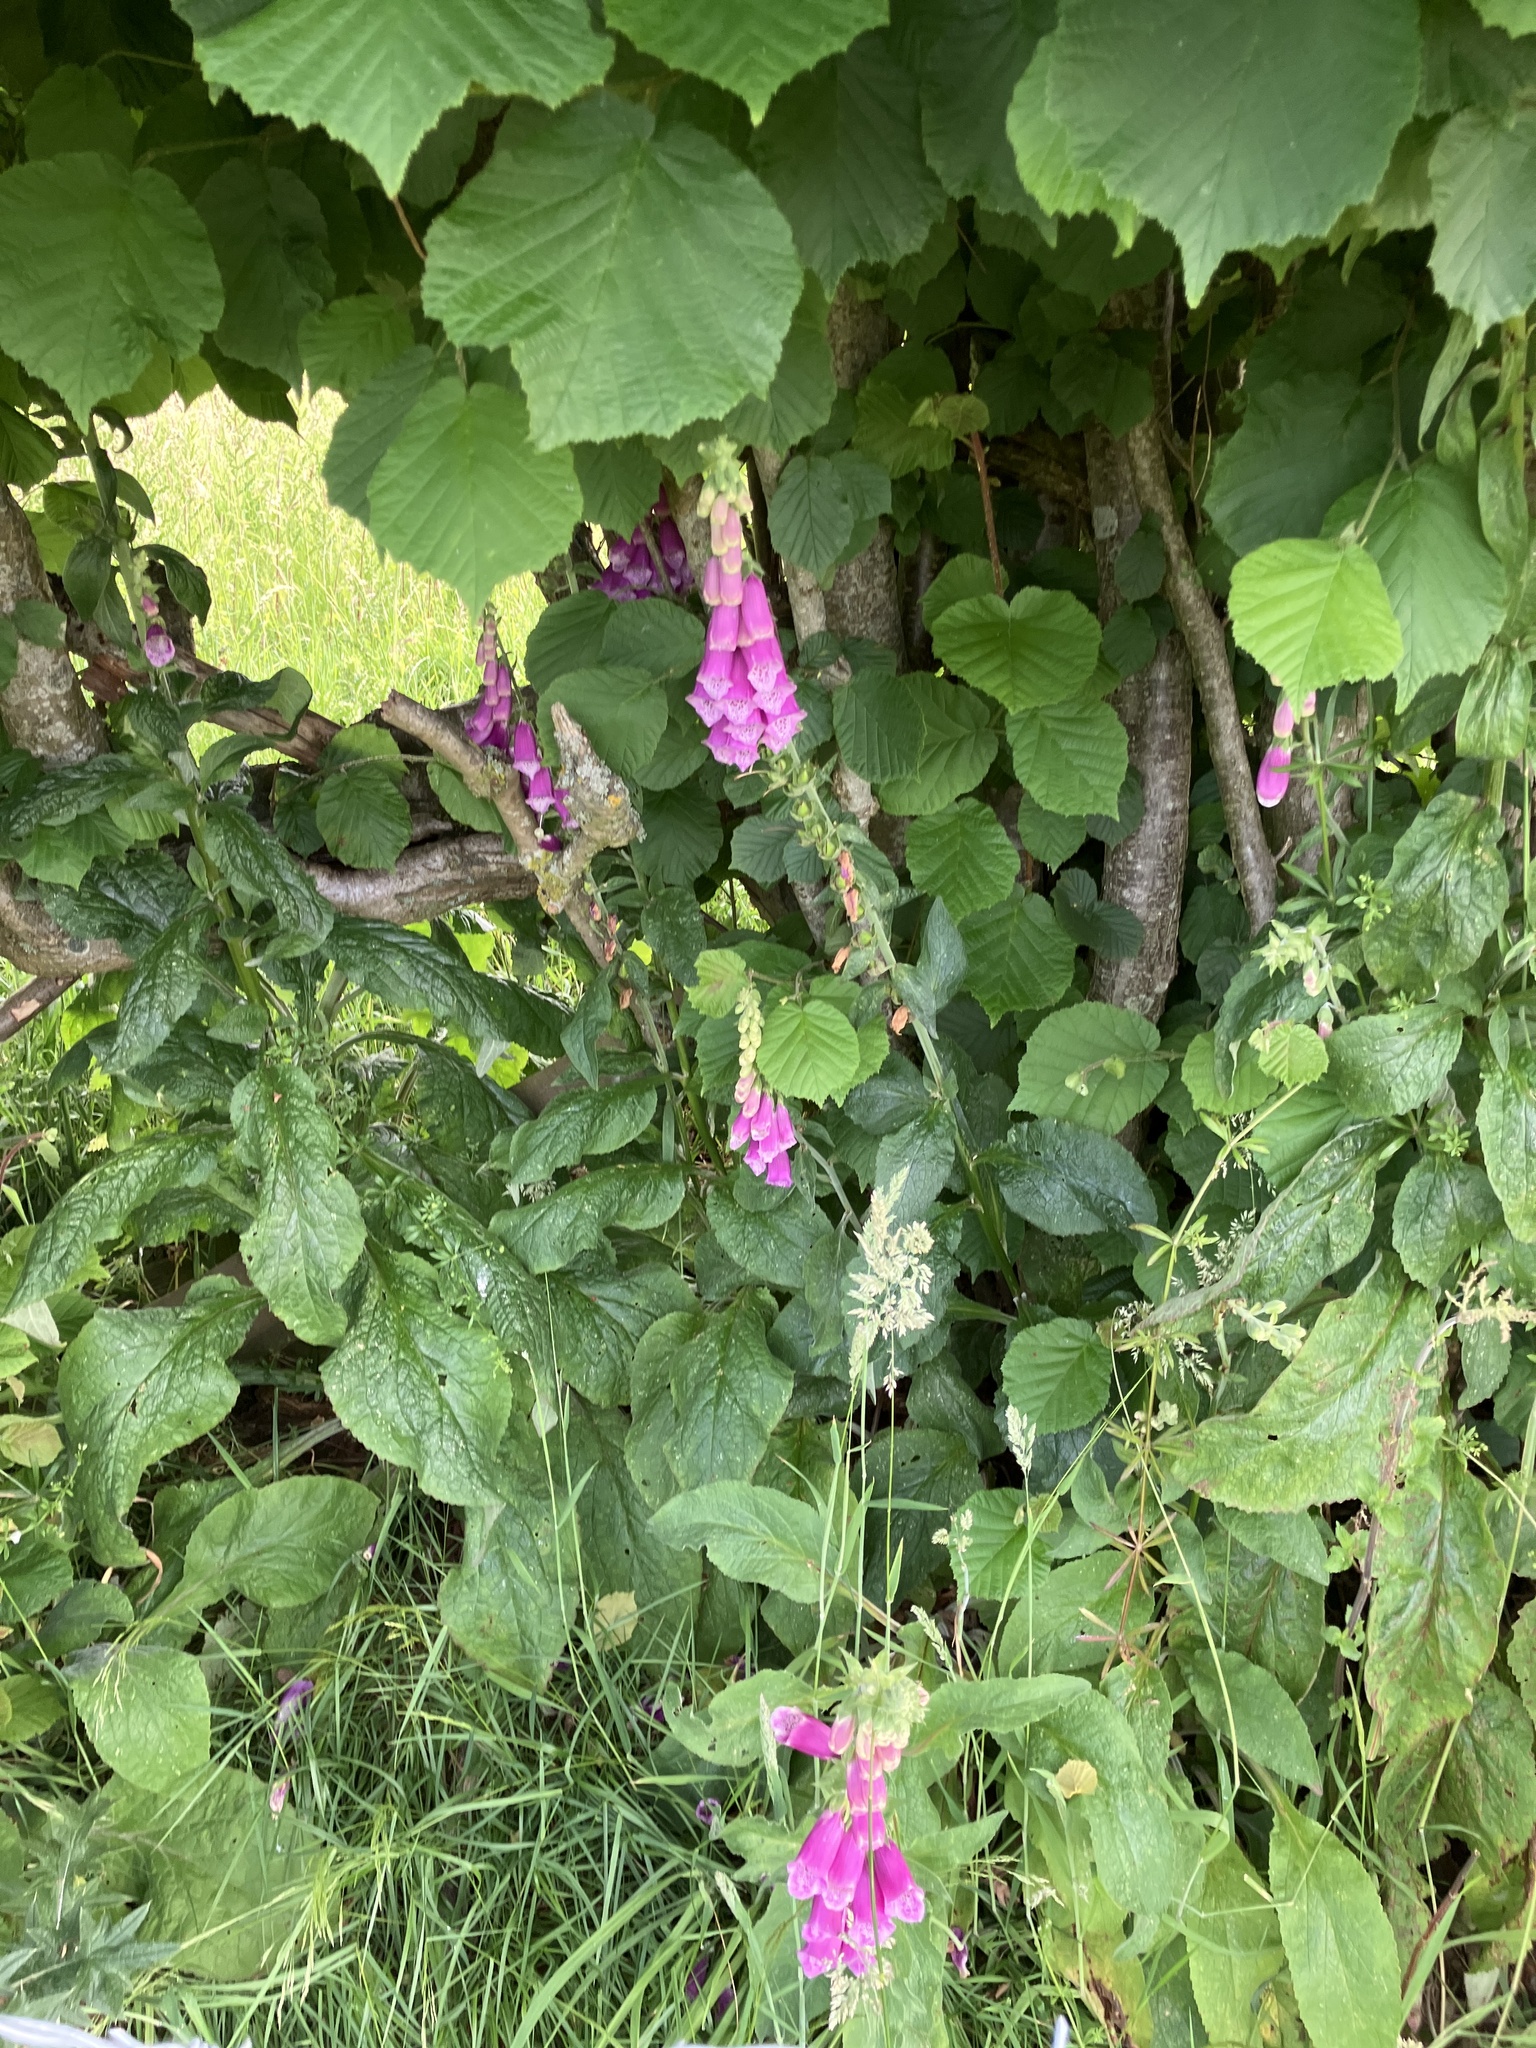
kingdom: Plantae
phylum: Tracheophyta
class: Magnoliopsida
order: Lamiales
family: Plantaginaceae
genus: Digitalis
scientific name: Digitalis purpurea
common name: Foxglove
